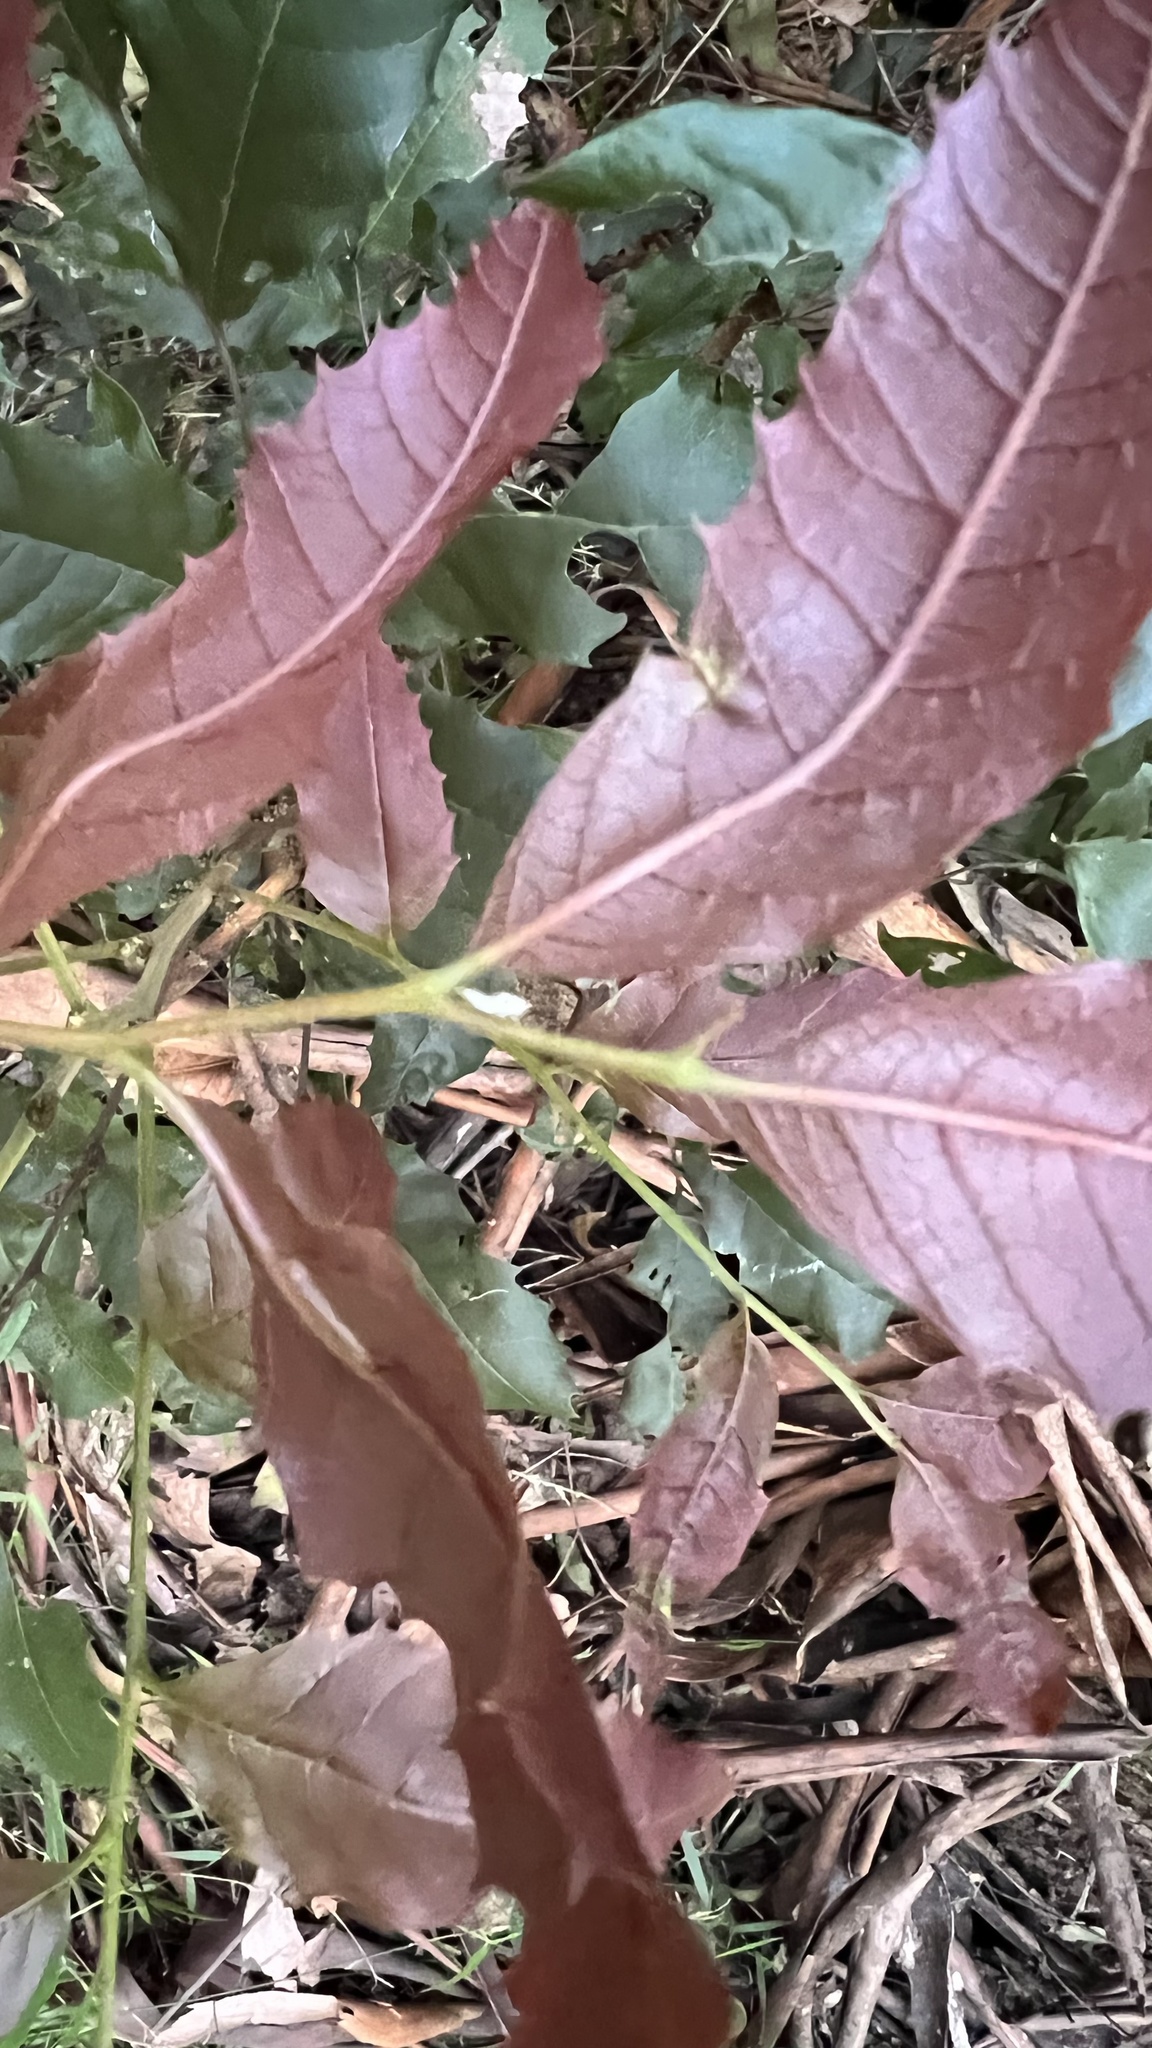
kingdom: Plantae
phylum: Tracheophyta
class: Magnoliopsida
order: Sapindales
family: Sapindaceae
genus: Cupaniopsis
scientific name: Cupaniopsis serrata
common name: Rusty tuckeroo
